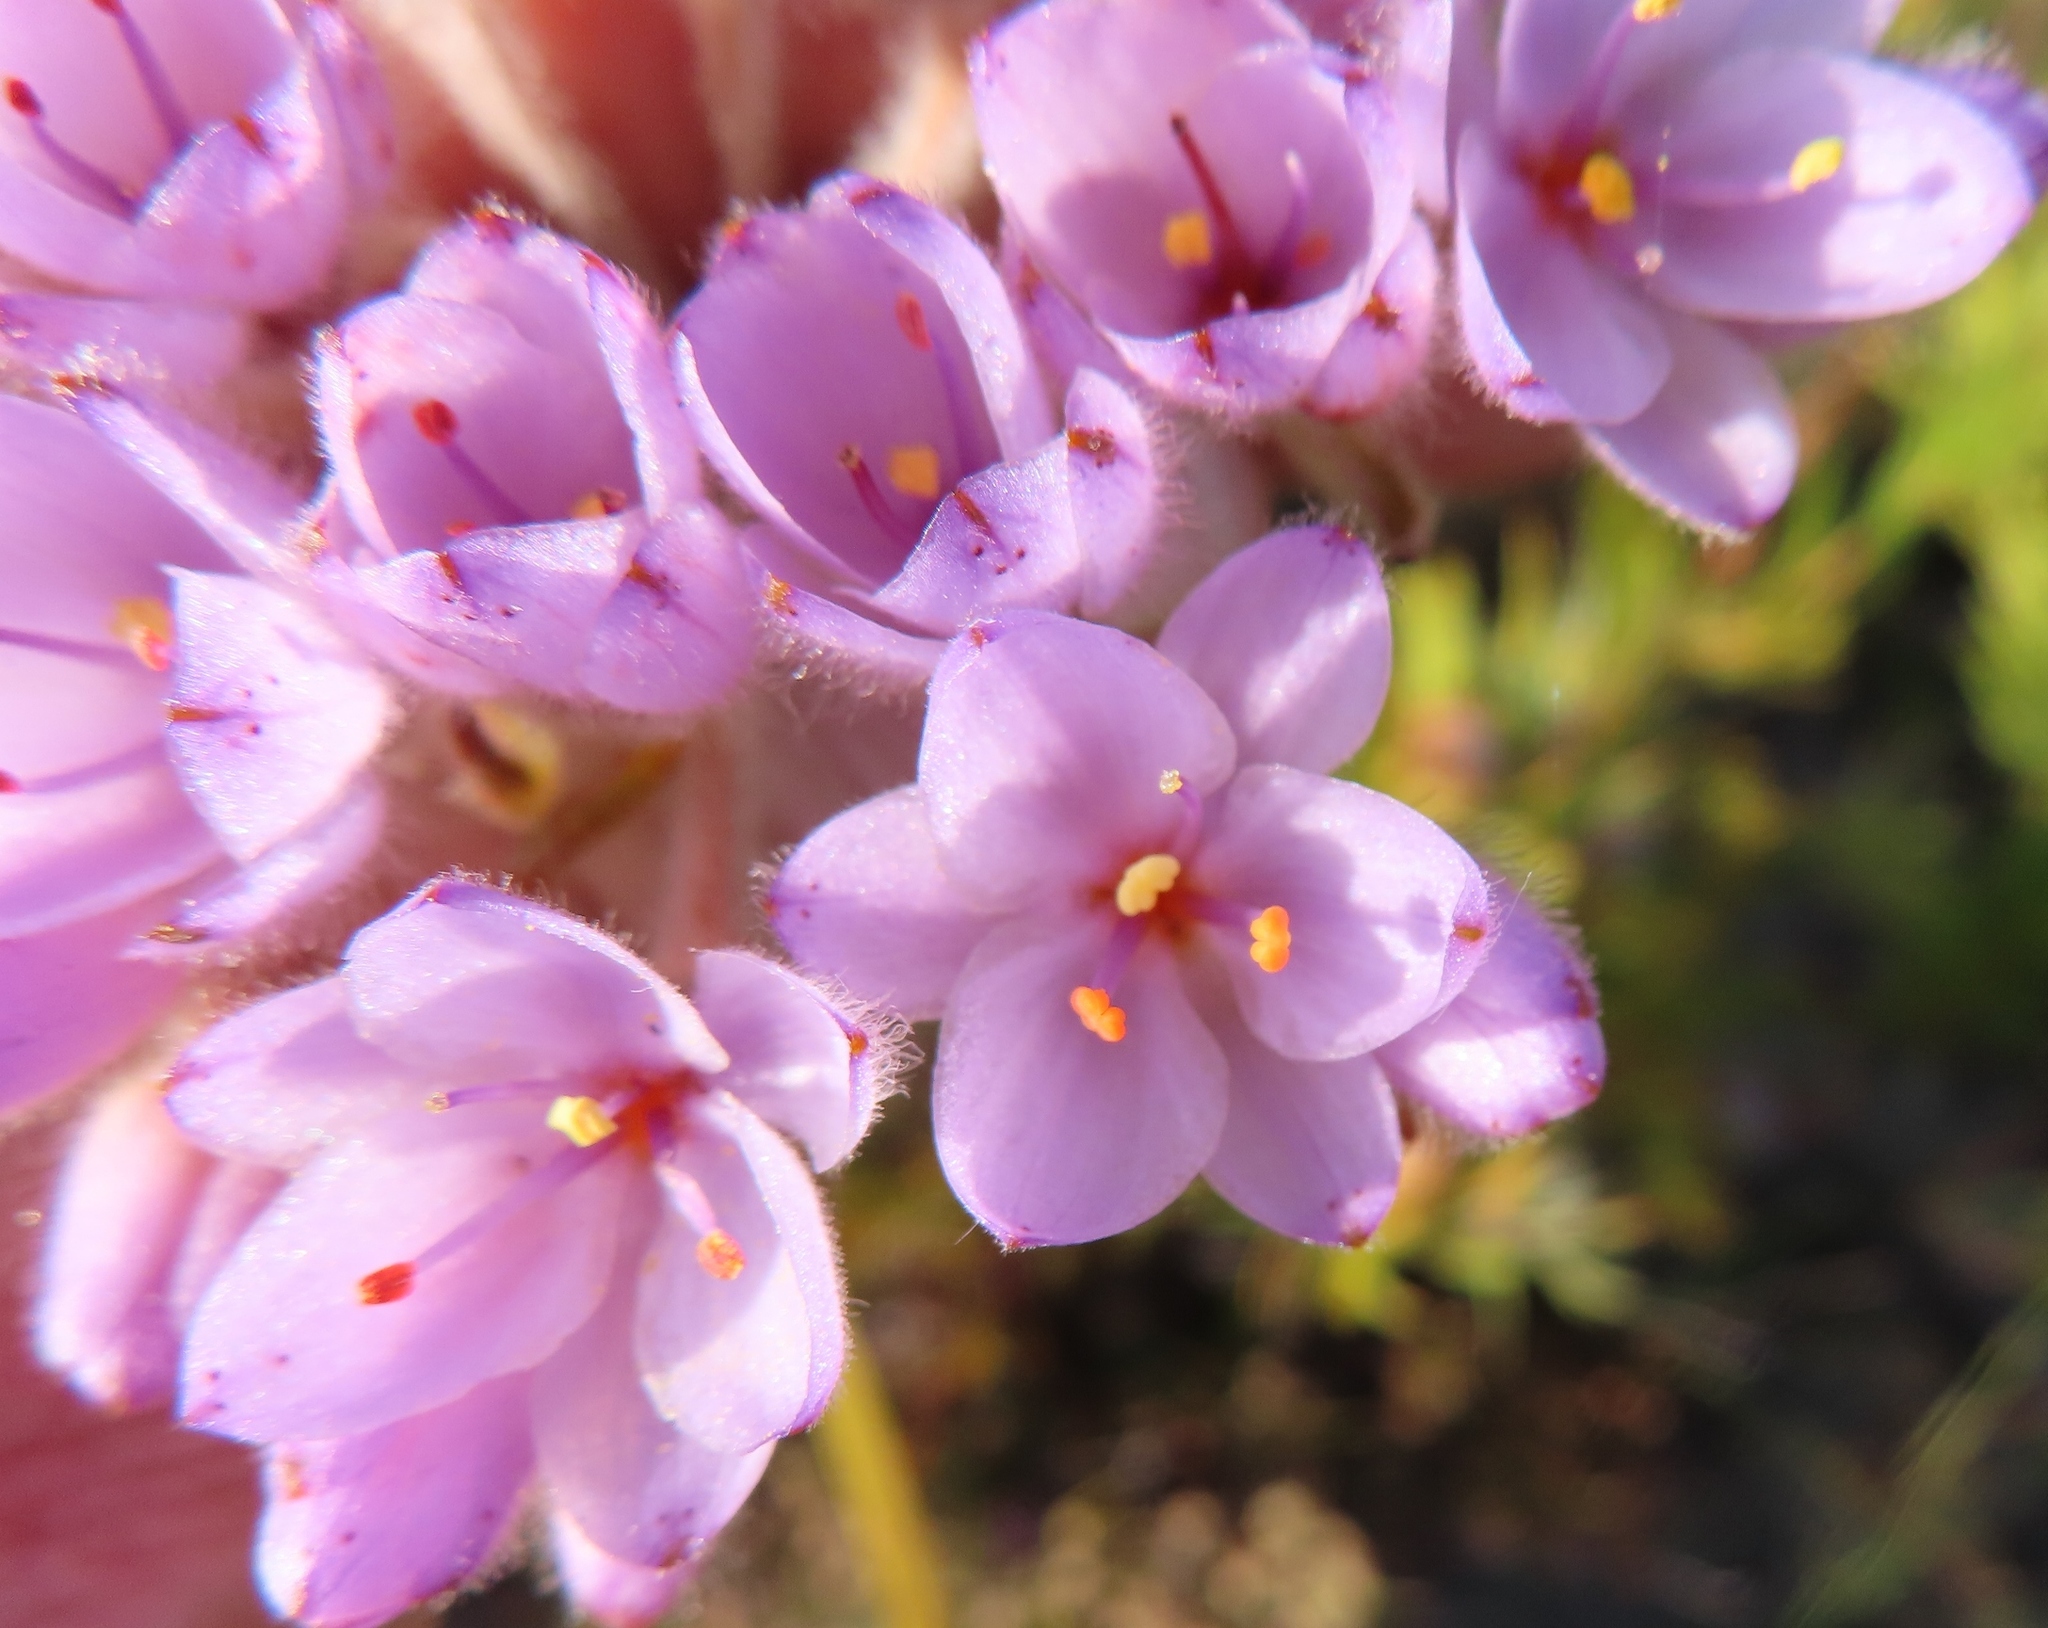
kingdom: Plantae
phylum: Tracheophyta
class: Liliopsida
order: Commelinales
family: Haemodoraceae
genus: Dilatris
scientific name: Dilatris pillansii
